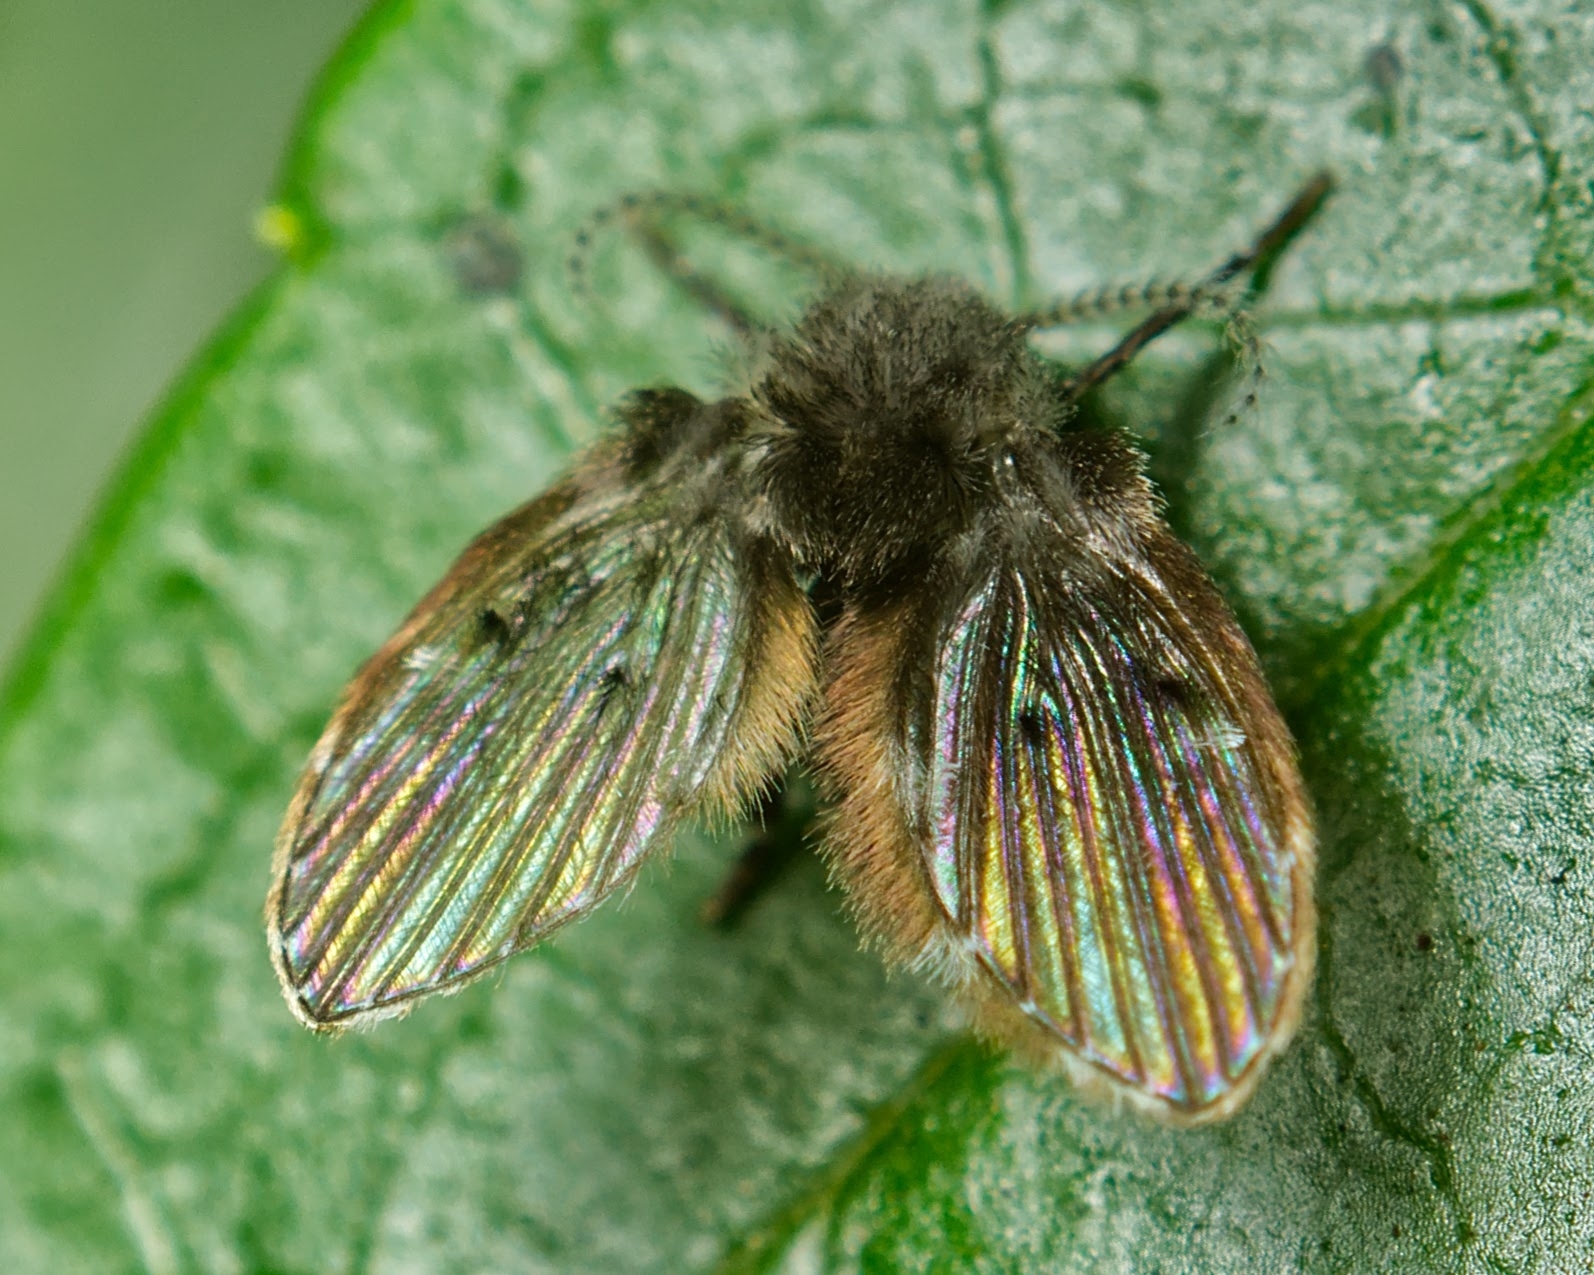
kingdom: Animalia
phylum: Arthropoda
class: Insecta
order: Diptera
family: Psychodidae
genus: Clogmia
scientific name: Clogmia albipunctatus
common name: White-spotted moth fly
